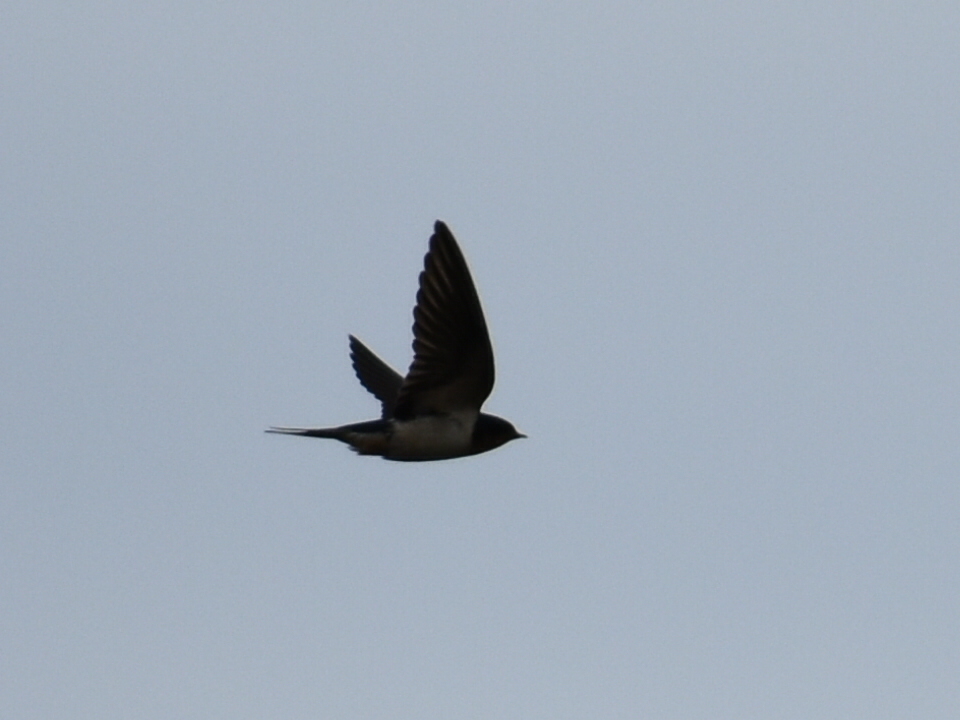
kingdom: Animalia
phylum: Chordata
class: Aves
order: Passeriformes
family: Hirundinidae
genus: Hirundo
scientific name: Hirundo rustica
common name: Barn swallow
